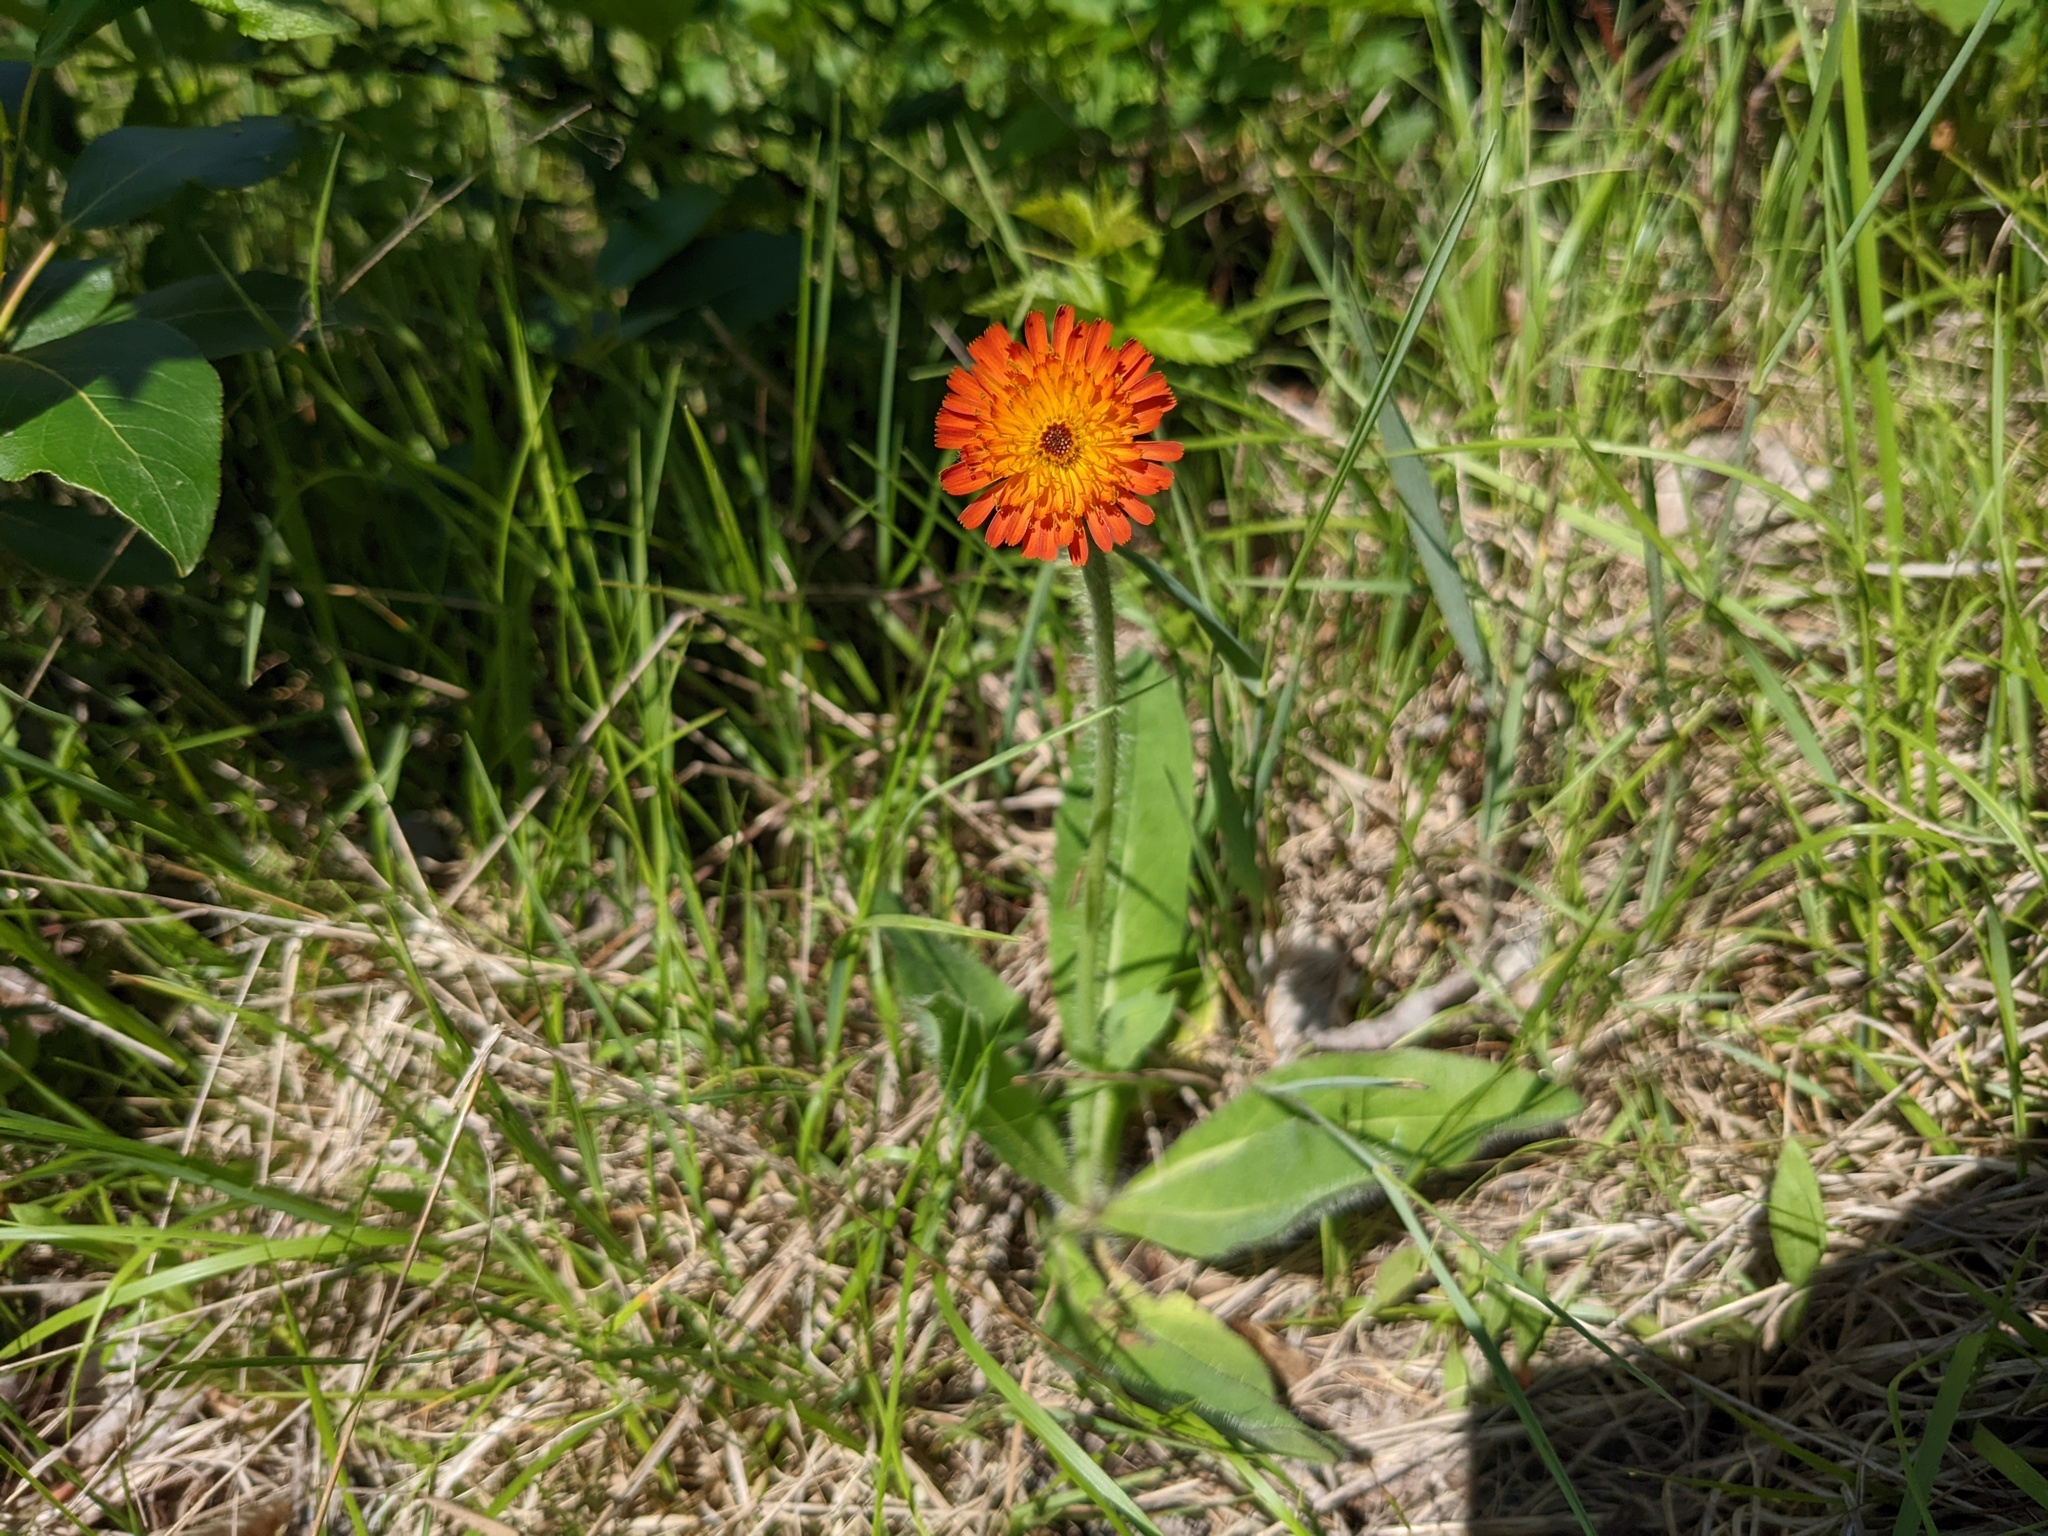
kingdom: Plantae
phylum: Tracheophyta
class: Magnoliopsida
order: Asterales
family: Asteraceae
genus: Pilosella
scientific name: Pilosella aurantiaca
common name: Fox-and-cubs
